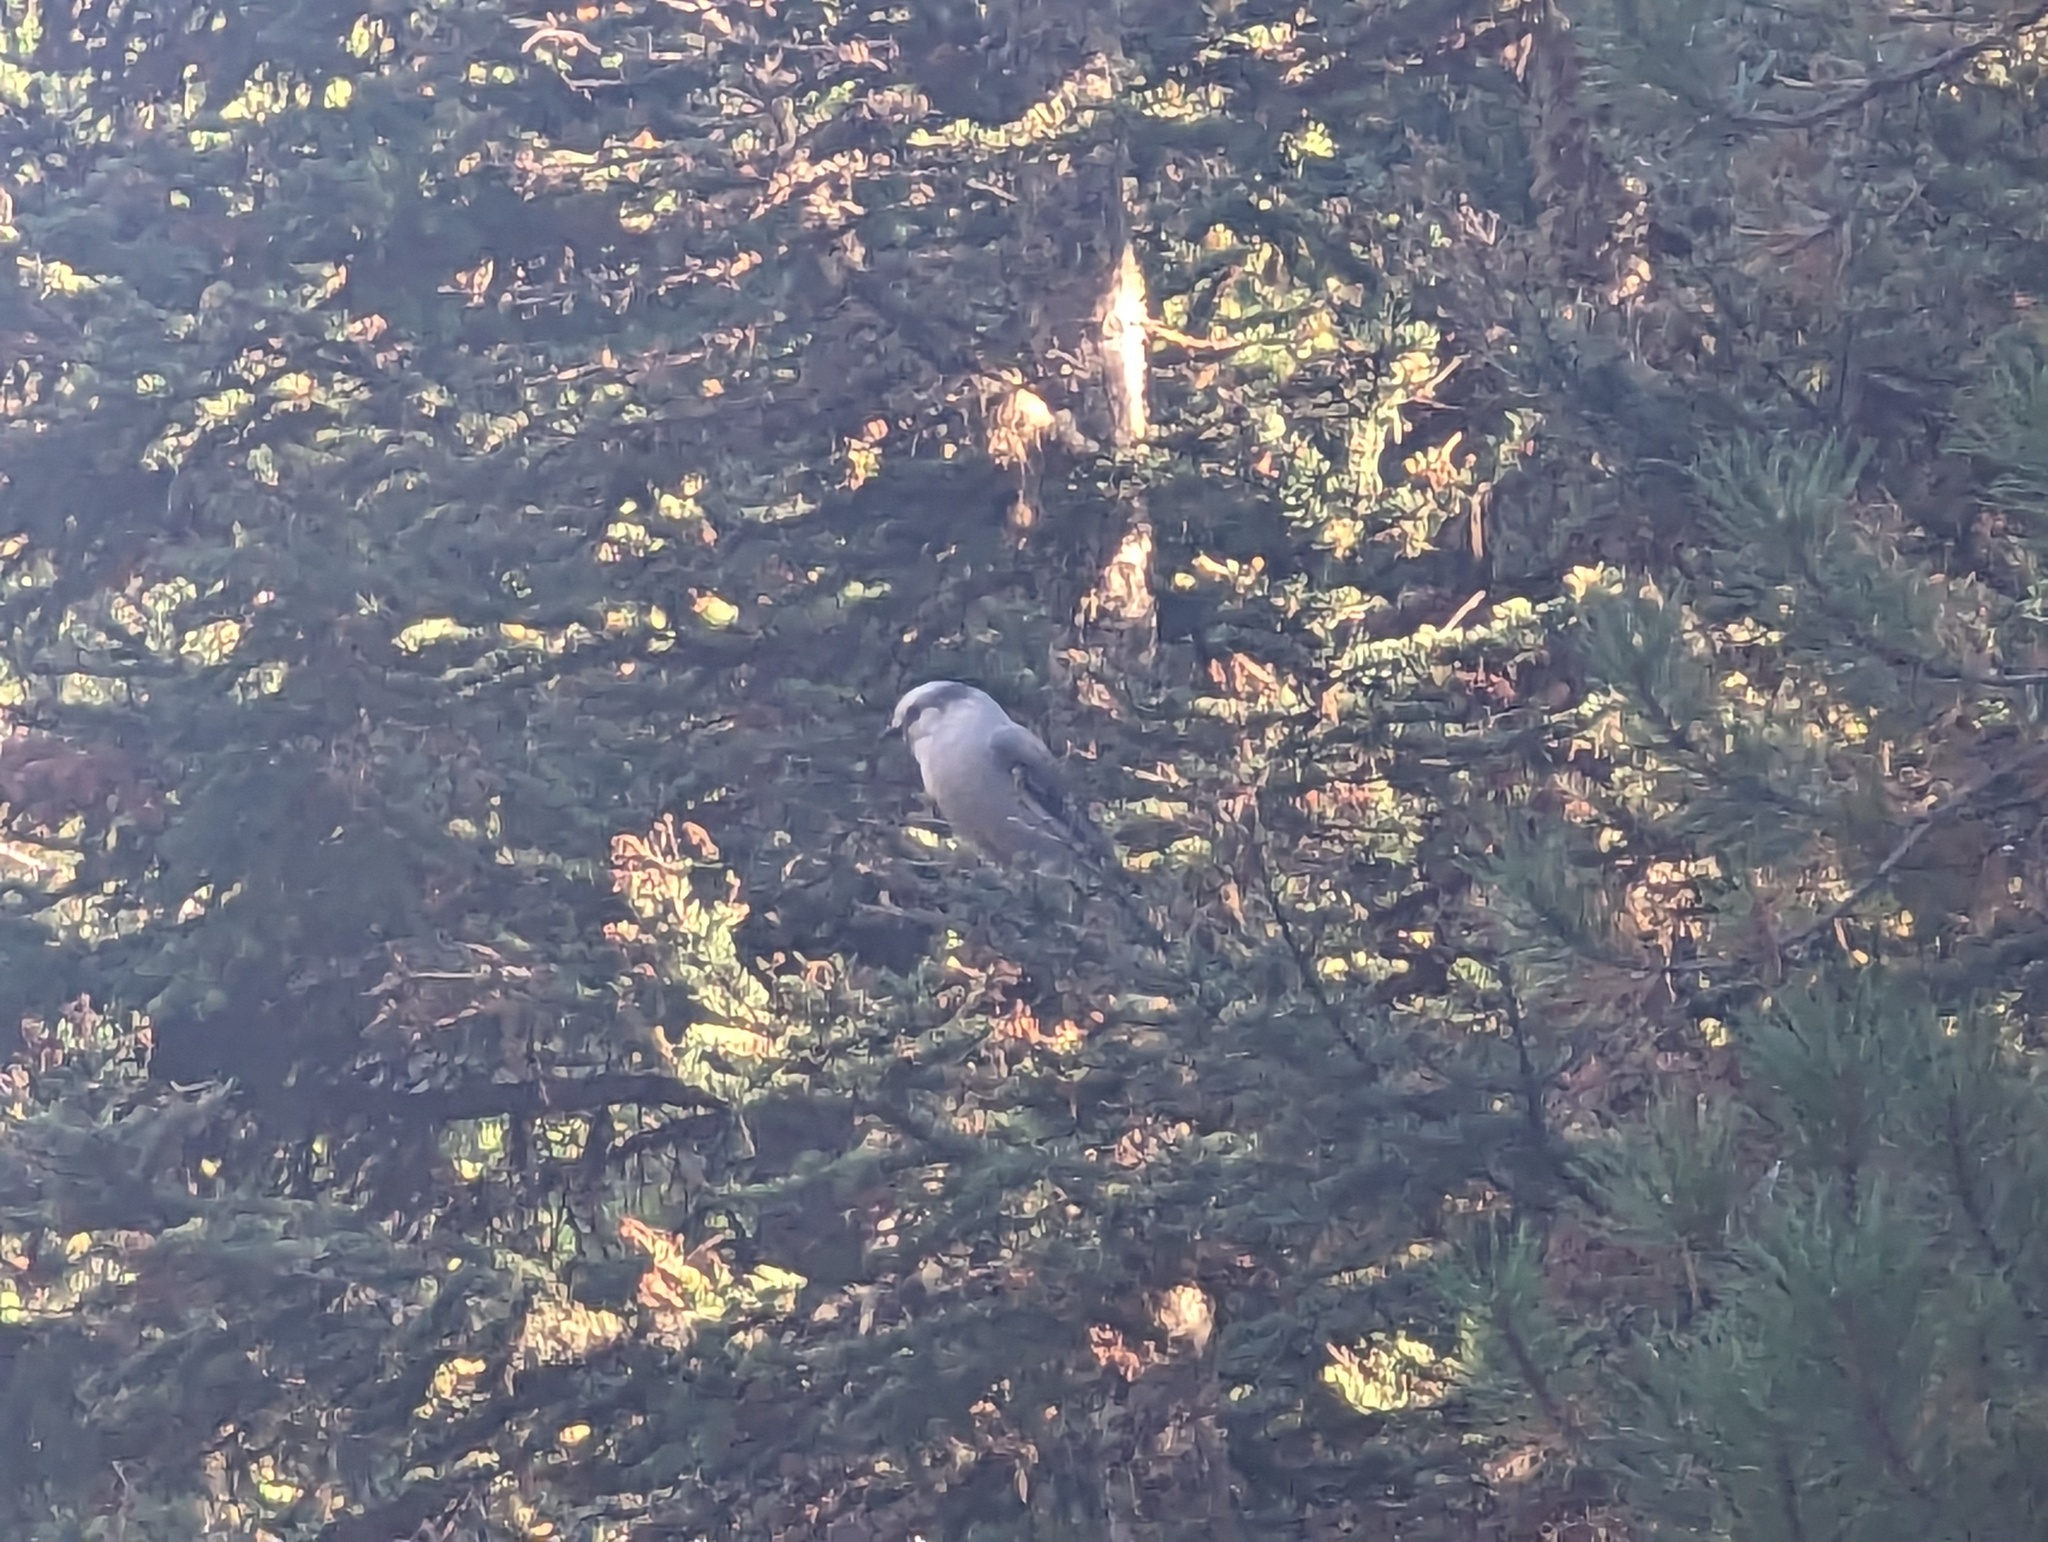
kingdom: Animalia
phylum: Chordata
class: Aves
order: Passeriformes
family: Corvidae
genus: Perisoreus
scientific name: Perisoreus canadensis
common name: Gray jay
